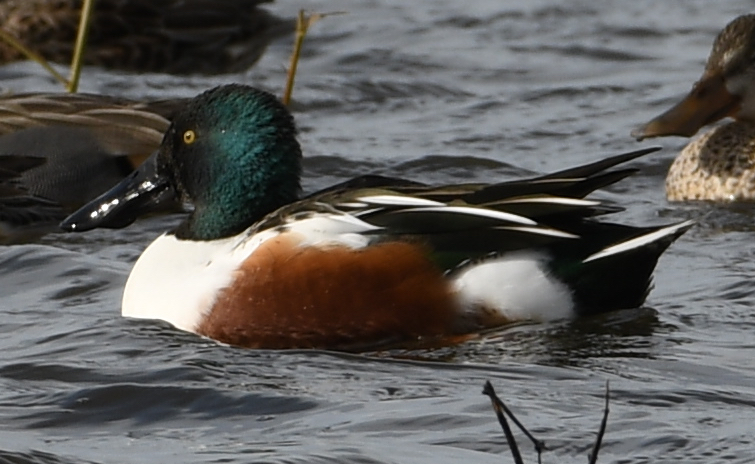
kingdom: Animalia
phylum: Chordata
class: Aves
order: Anseriformes
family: Anatidae
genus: Spatula
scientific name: Spatula clypeata
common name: Northern shoveler
